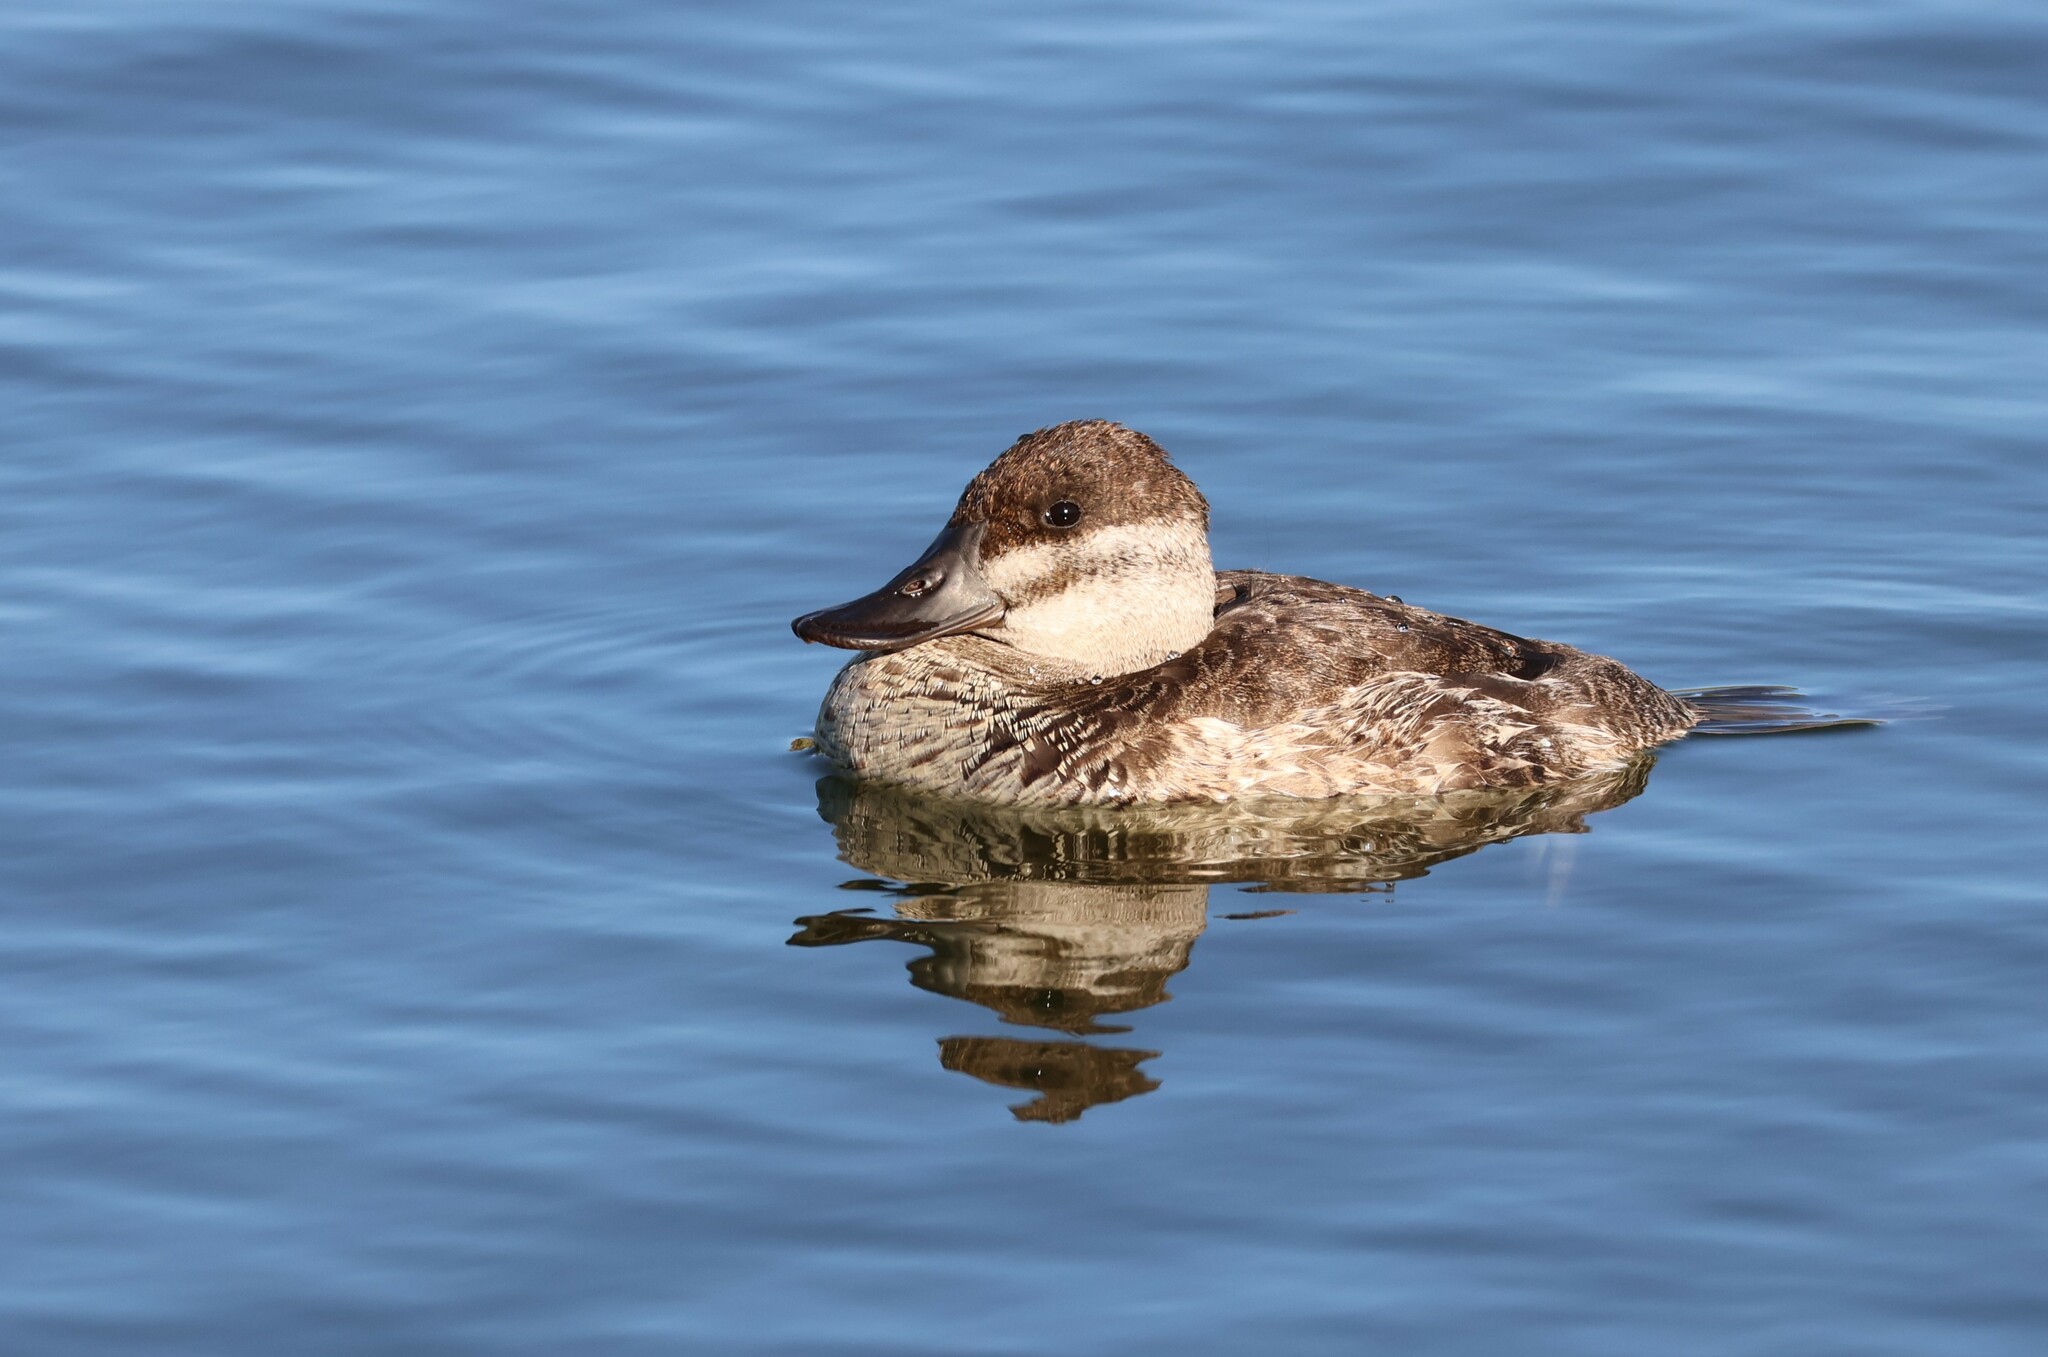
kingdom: Animalia
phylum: Chordata
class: Aves
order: Anseriformes
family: Anatidae
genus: Oxyura
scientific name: Oxyura jamaicensis
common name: Ruddy duck
